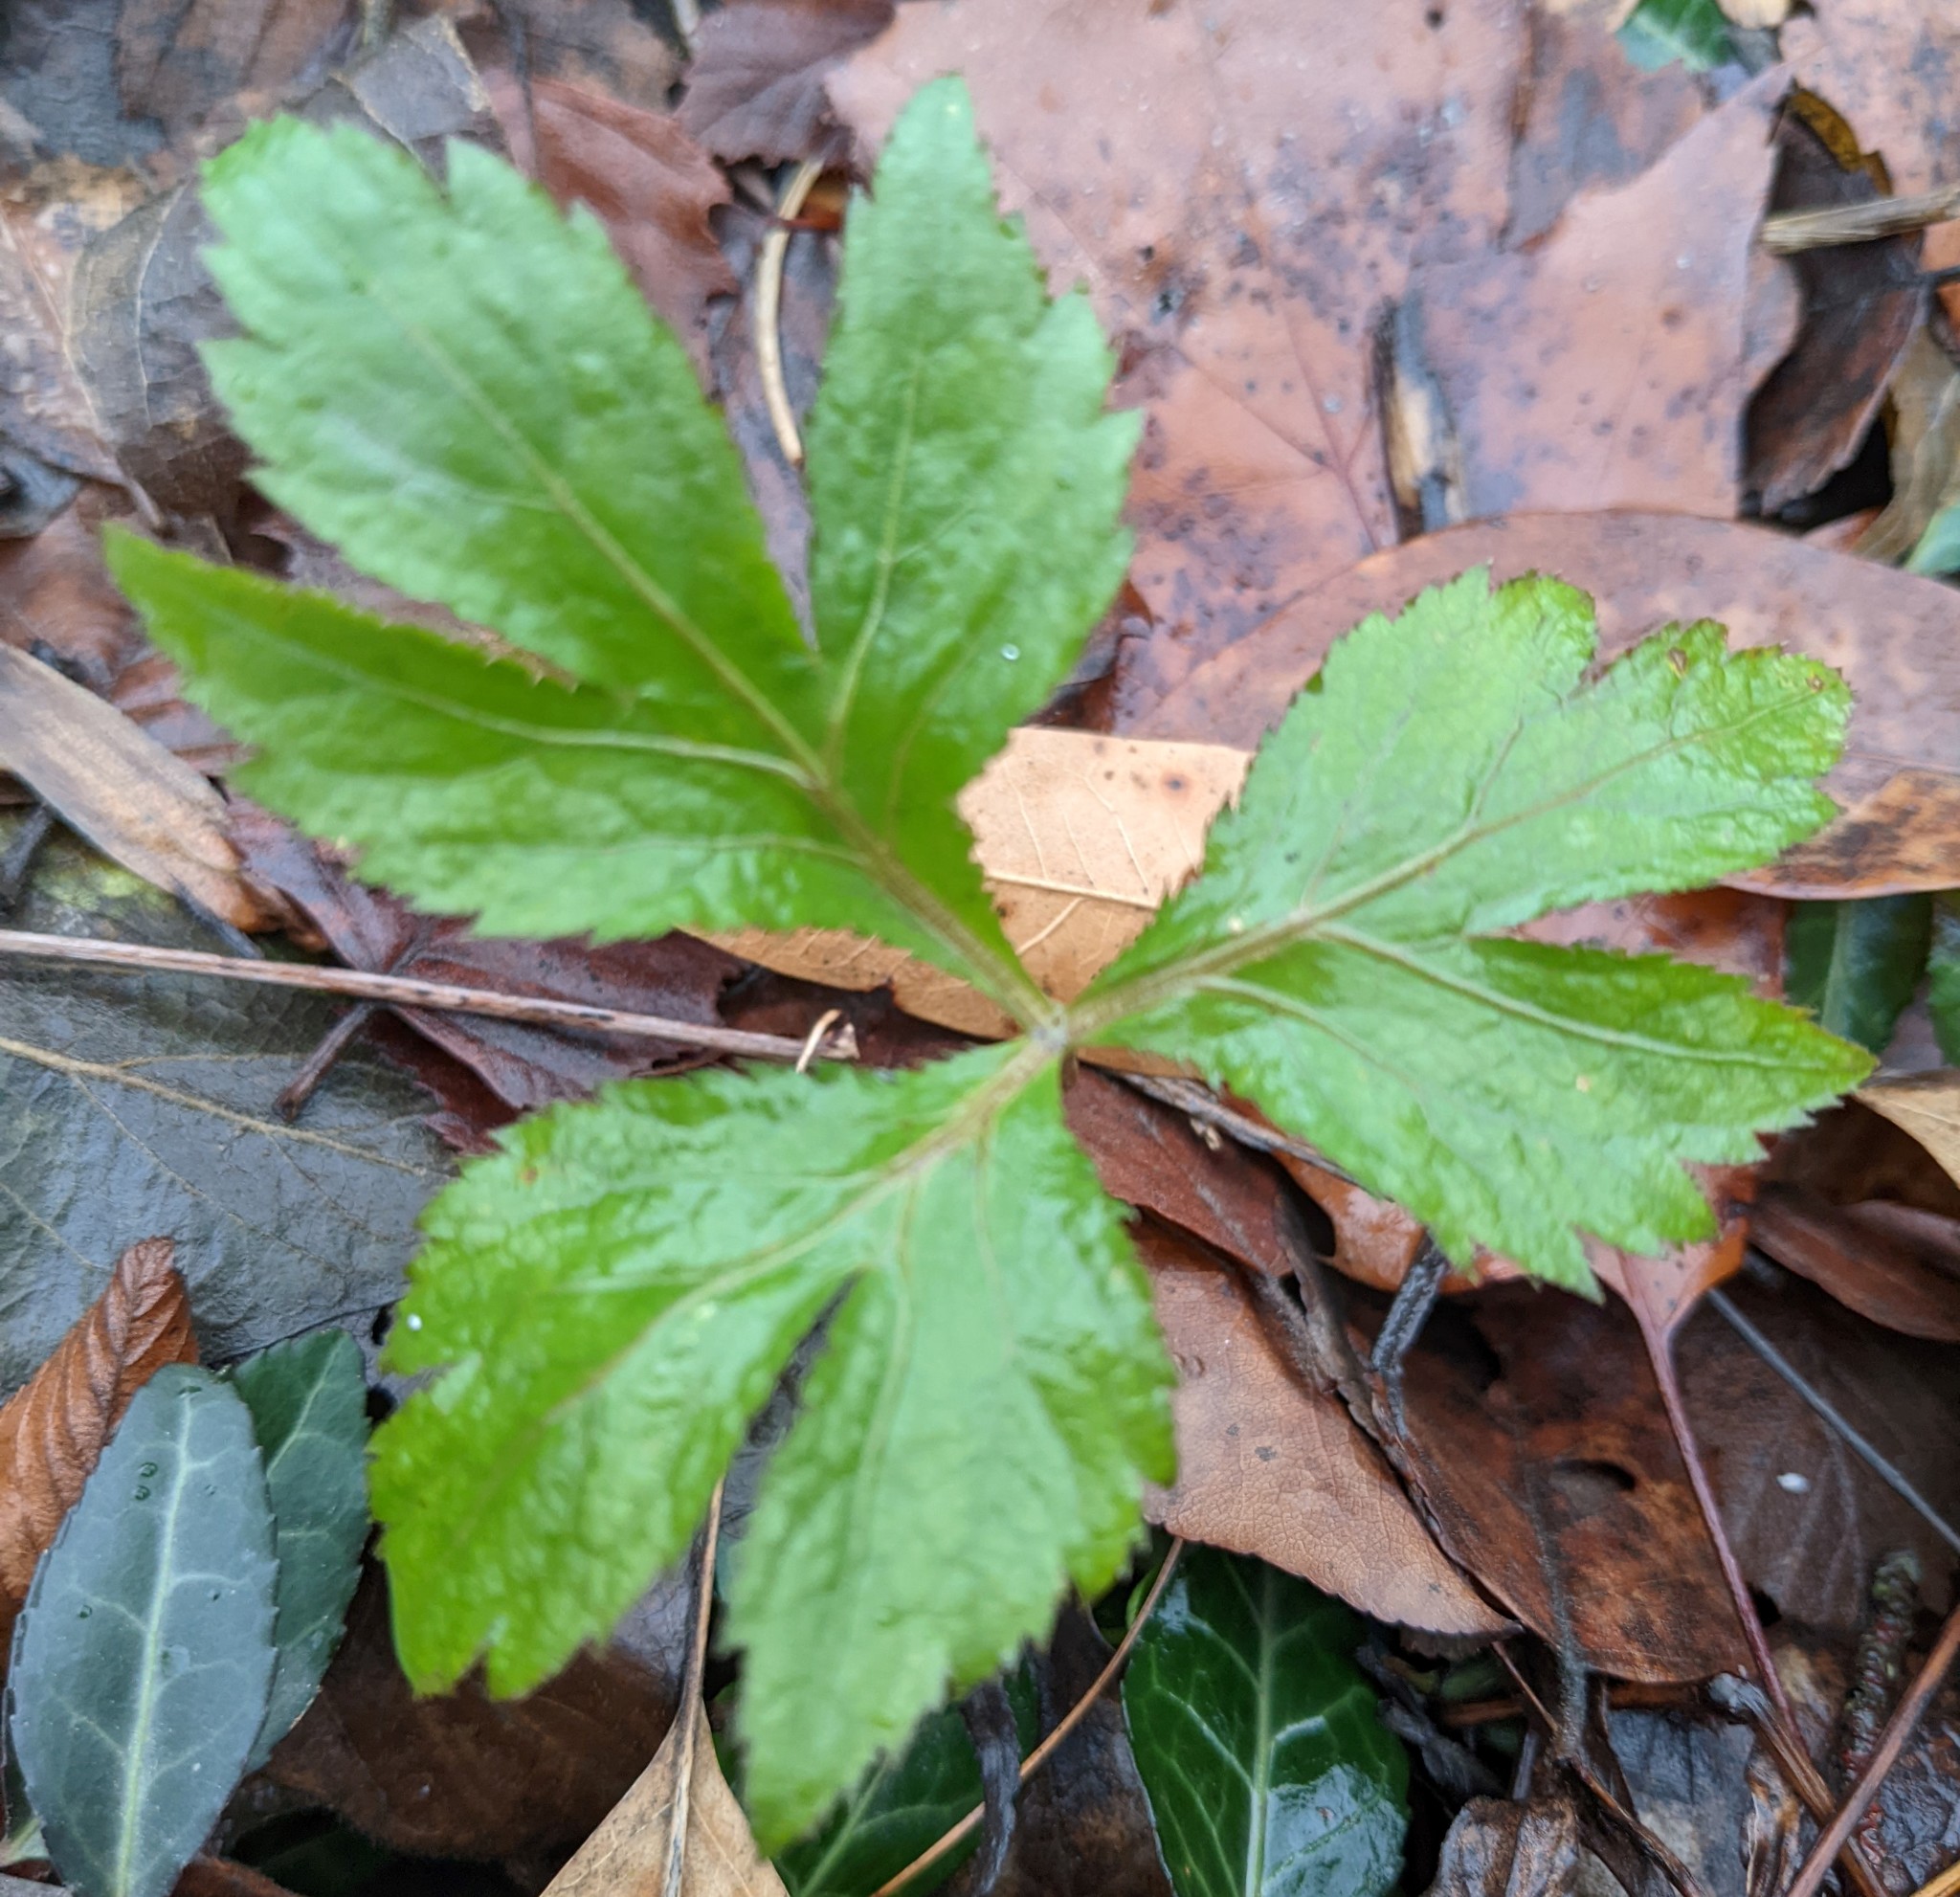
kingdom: Plantae
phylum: Tracheophyta
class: Magnoliopsida
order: Apiales
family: Apiaceae
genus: Cryptotaenia
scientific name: Cryptotaenia canadensis
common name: Honewort
